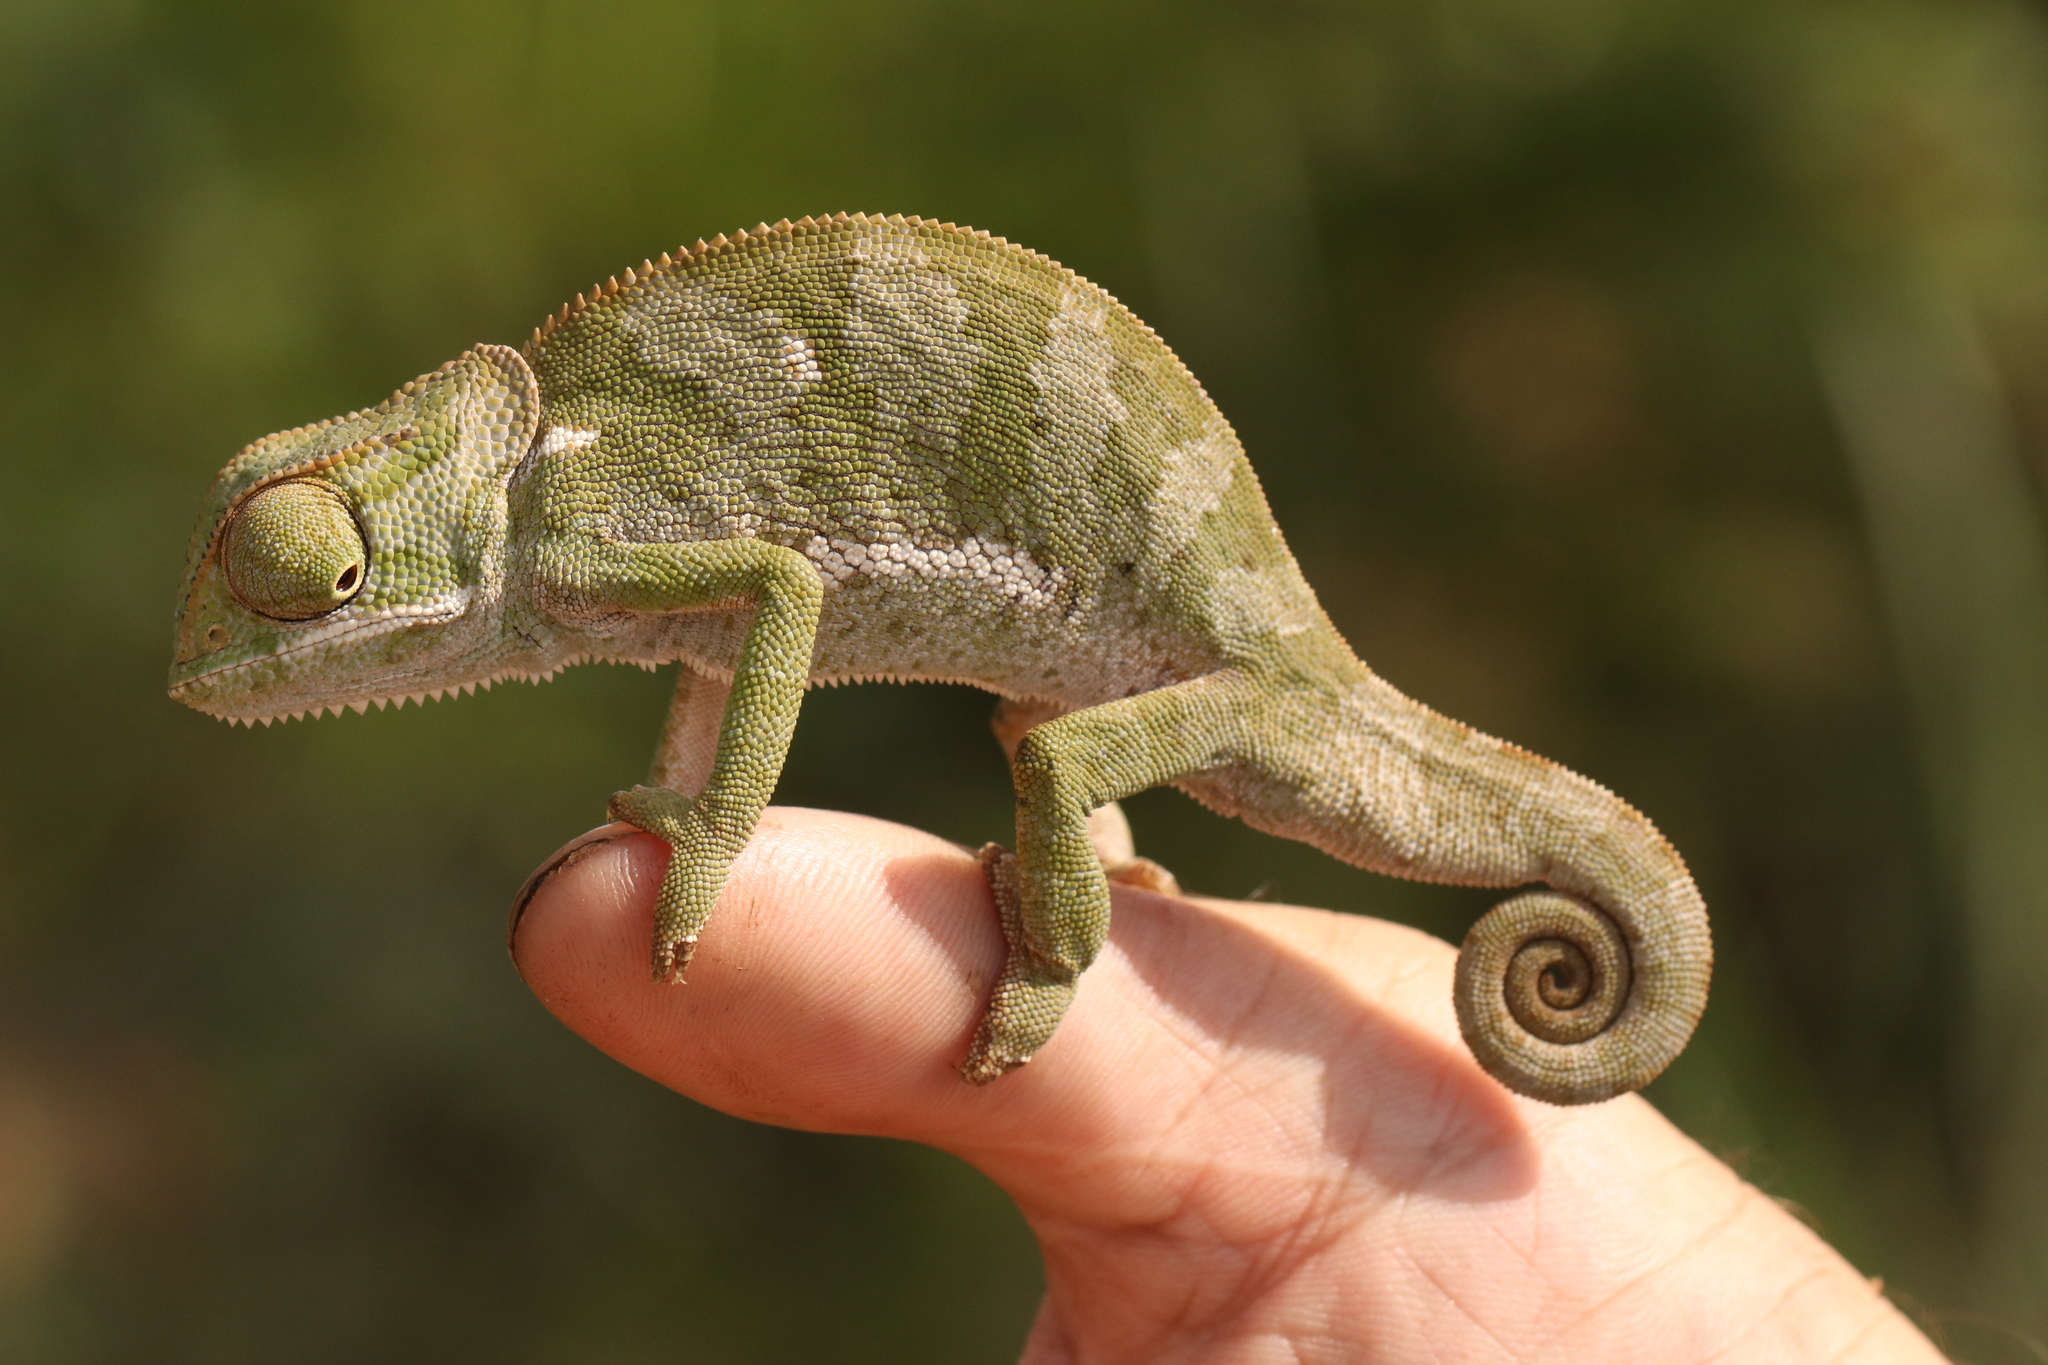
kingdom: Animalia
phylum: Chordata
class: Squamata
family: Chamaeleonidae
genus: Chamaeleo
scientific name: Chamaeleo dilepis
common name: Flapneck chameleon
